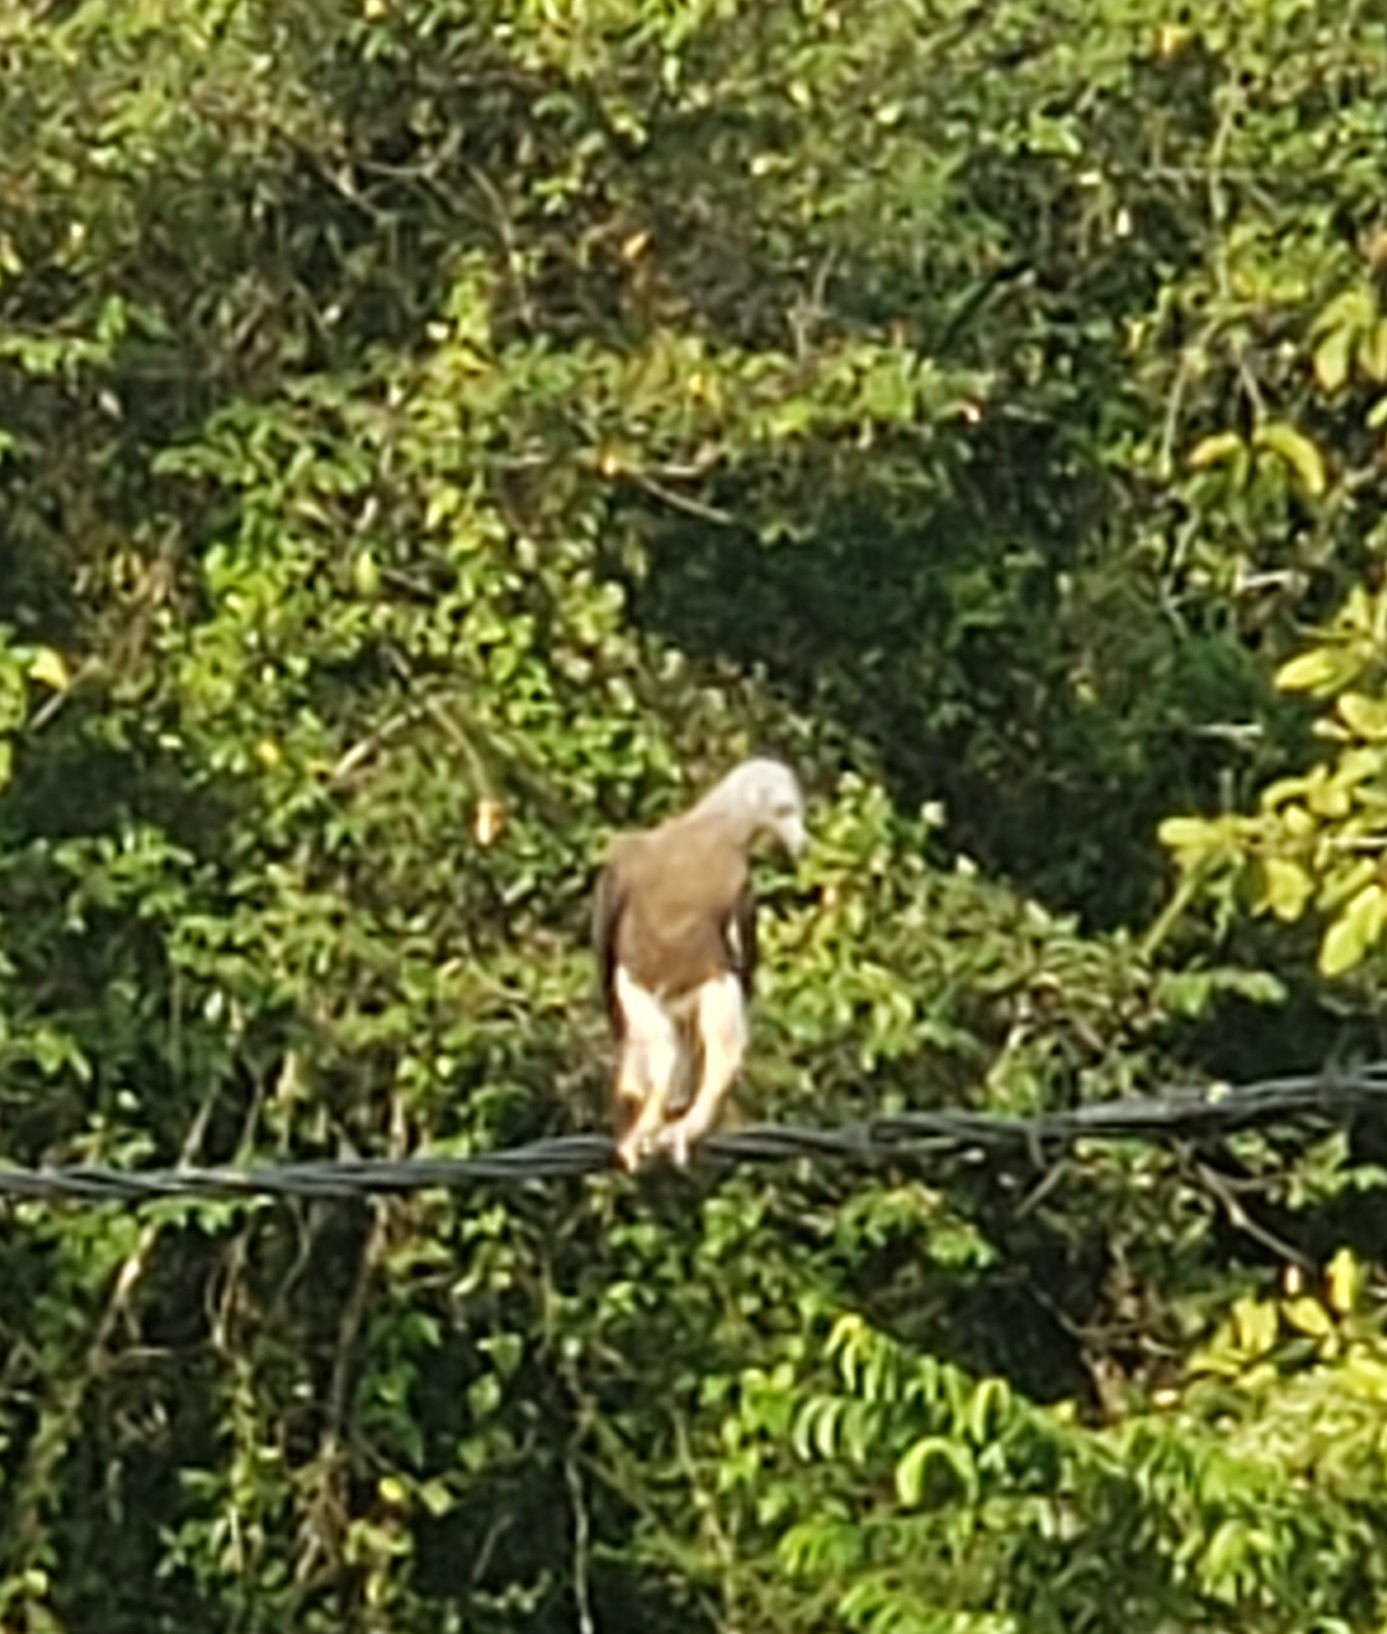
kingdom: Animalia
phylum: Chordata
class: Aves
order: Accipitriformes
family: Accipitridae
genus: Icthyophaga
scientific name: Icthyophaga ichthyaetus
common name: Grey-headed fish eagle
